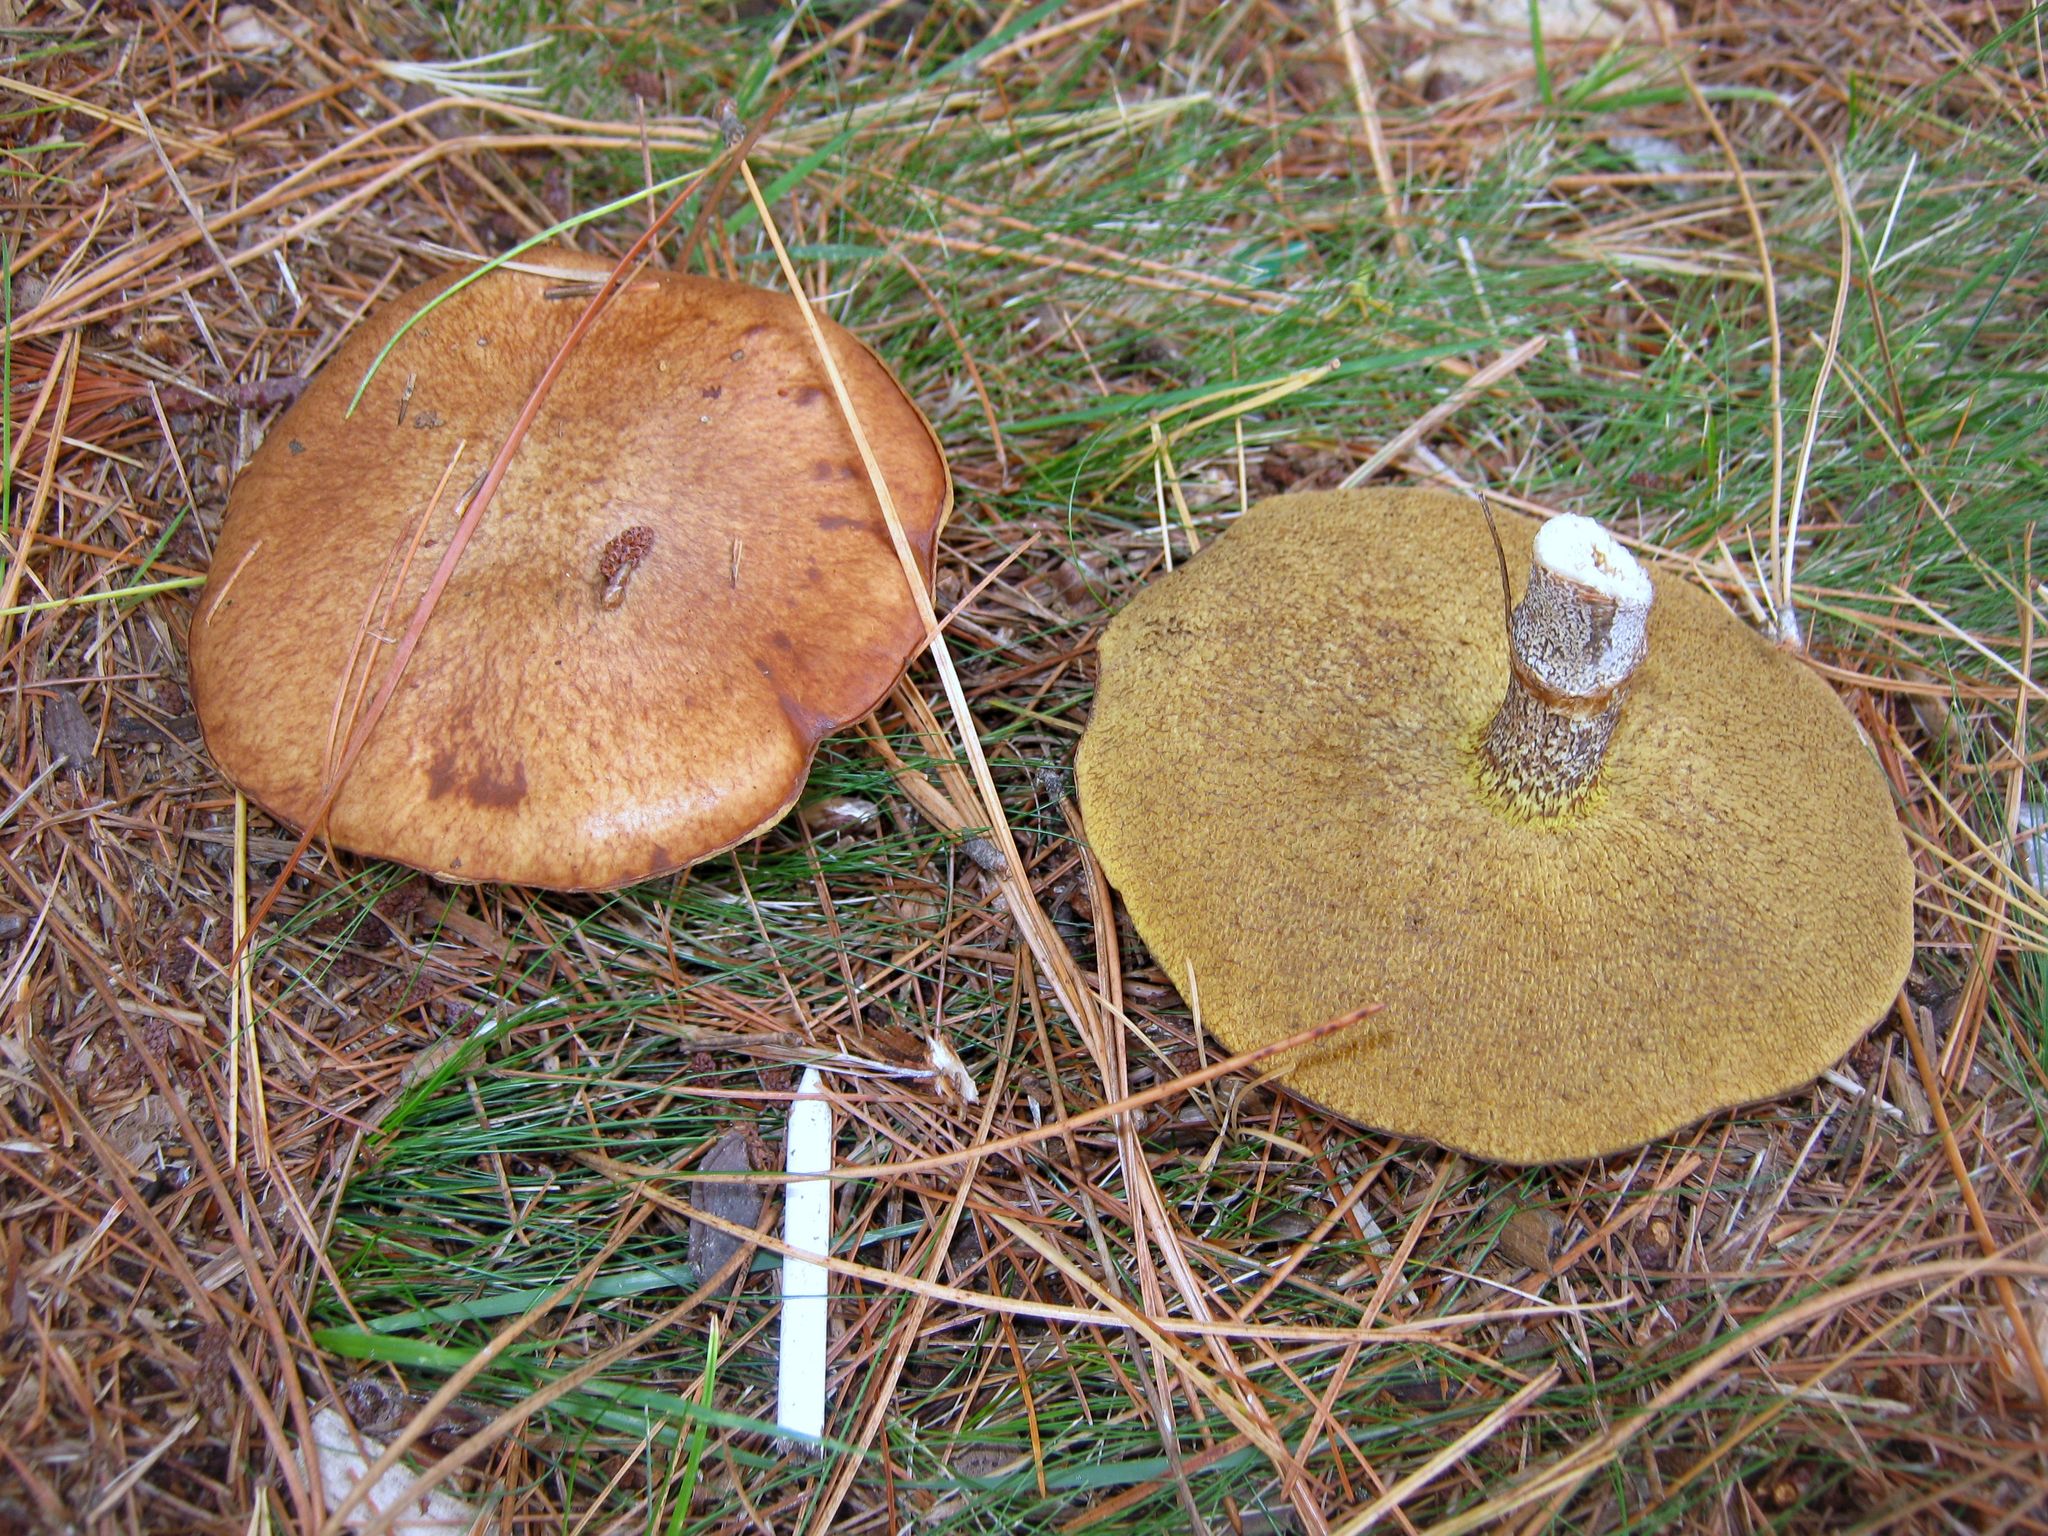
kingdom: Fungi
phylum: Basidiomycota
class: Agaricomycetes
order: Boletales
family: Suillaceae
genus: Suillus
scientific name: Suillus acidus
